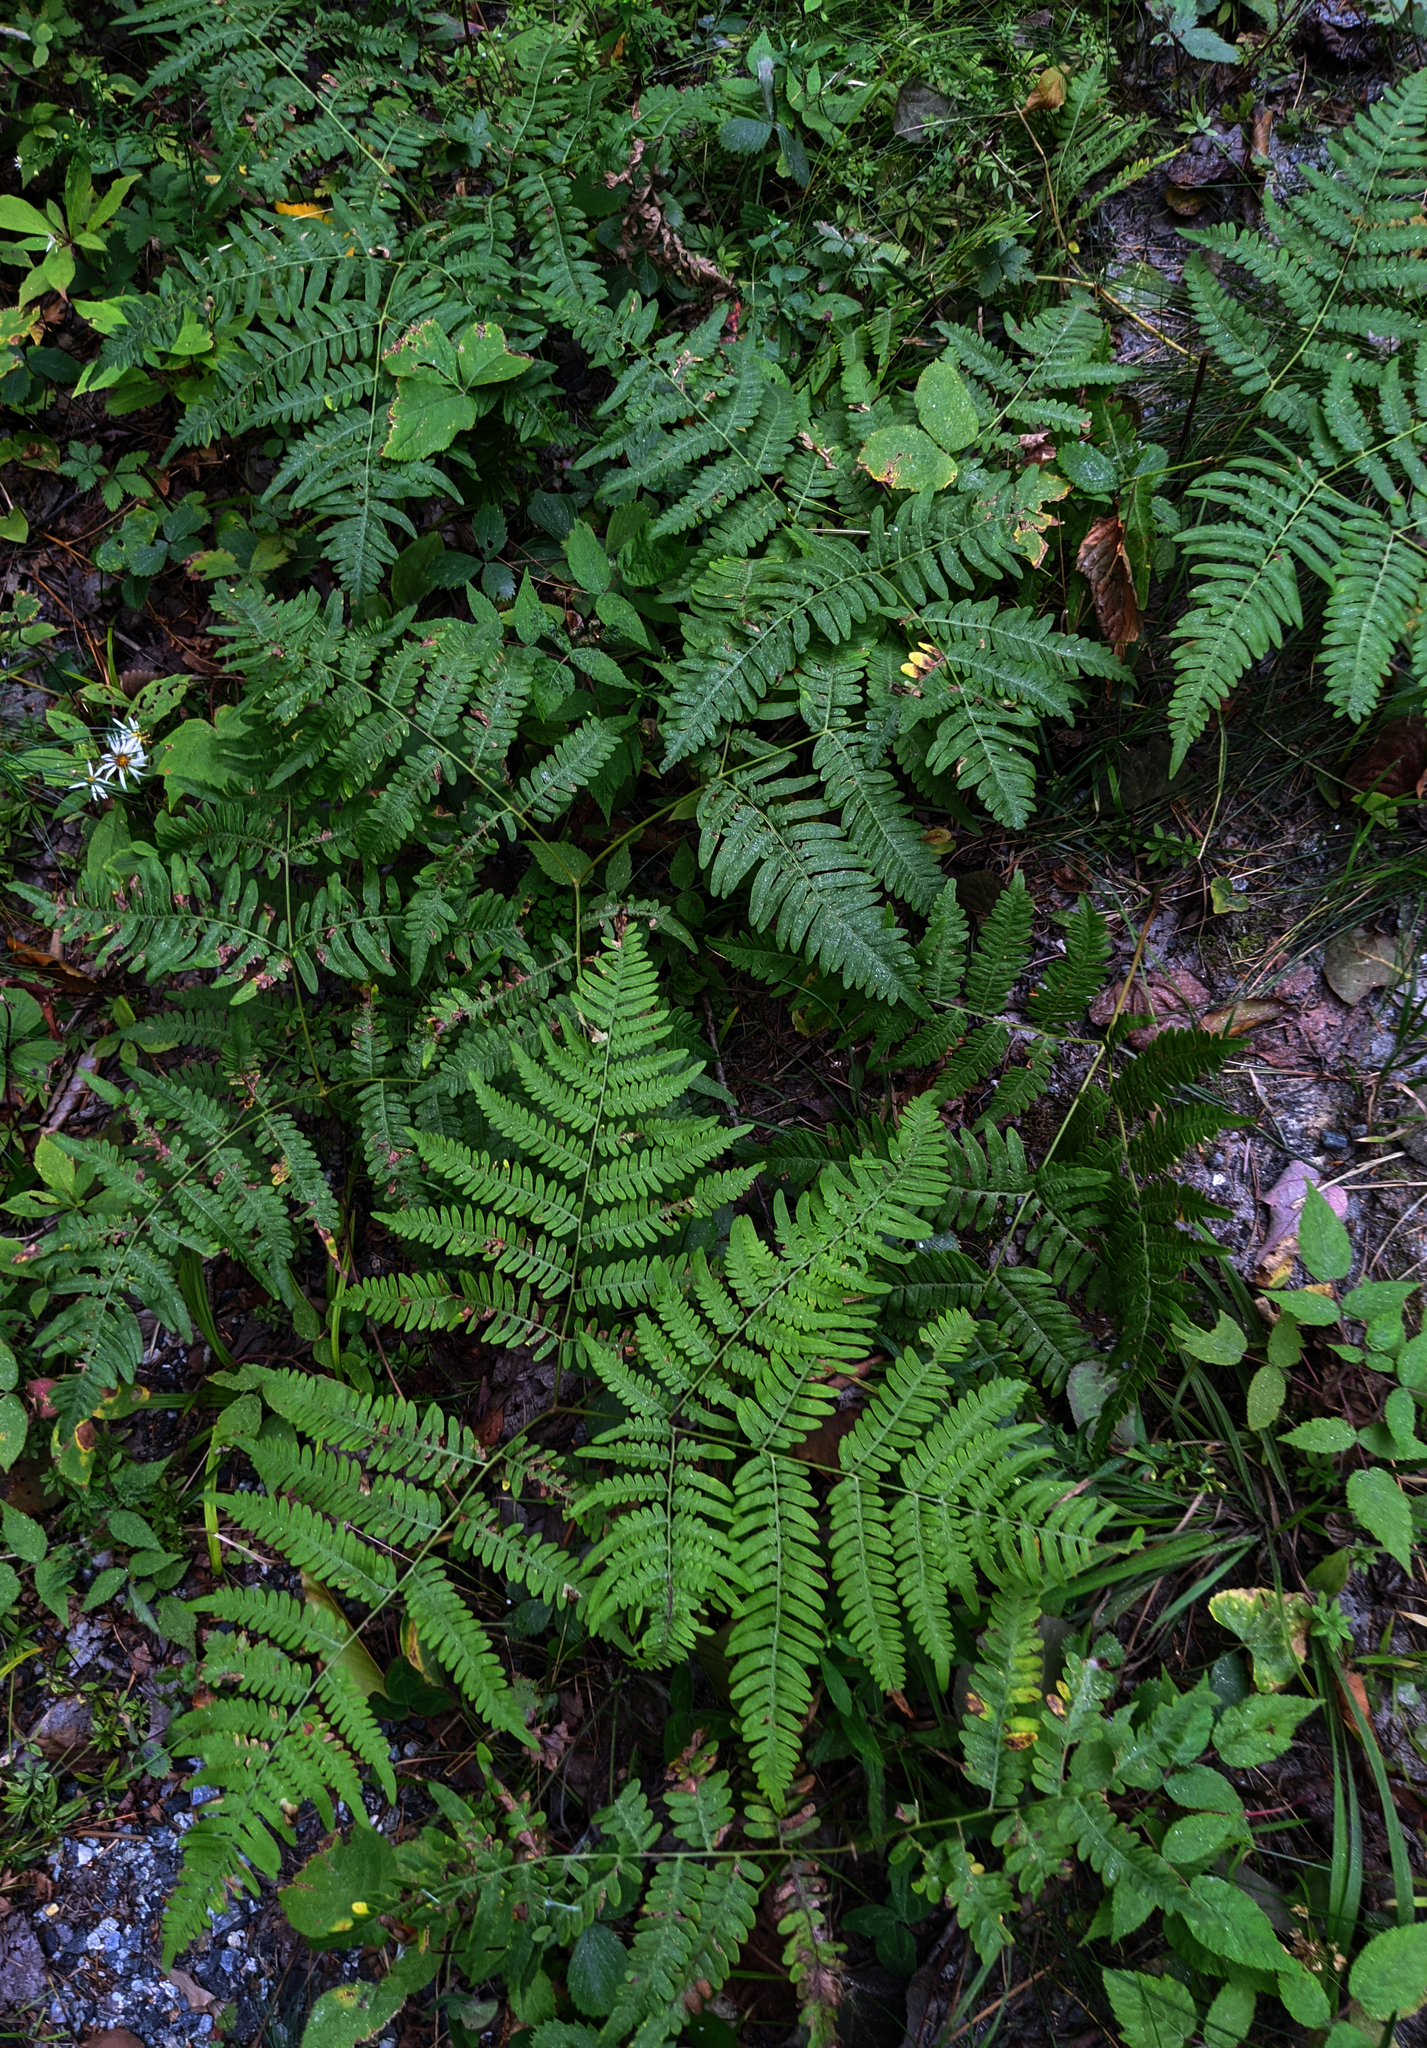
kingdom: Plantae
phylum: Tracheophyta
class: Polypodiopsida
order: Polypodiales
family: Dennstaedtiaceae
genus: Pteridium
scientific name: Pteridium aquilinum
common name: Bracken
